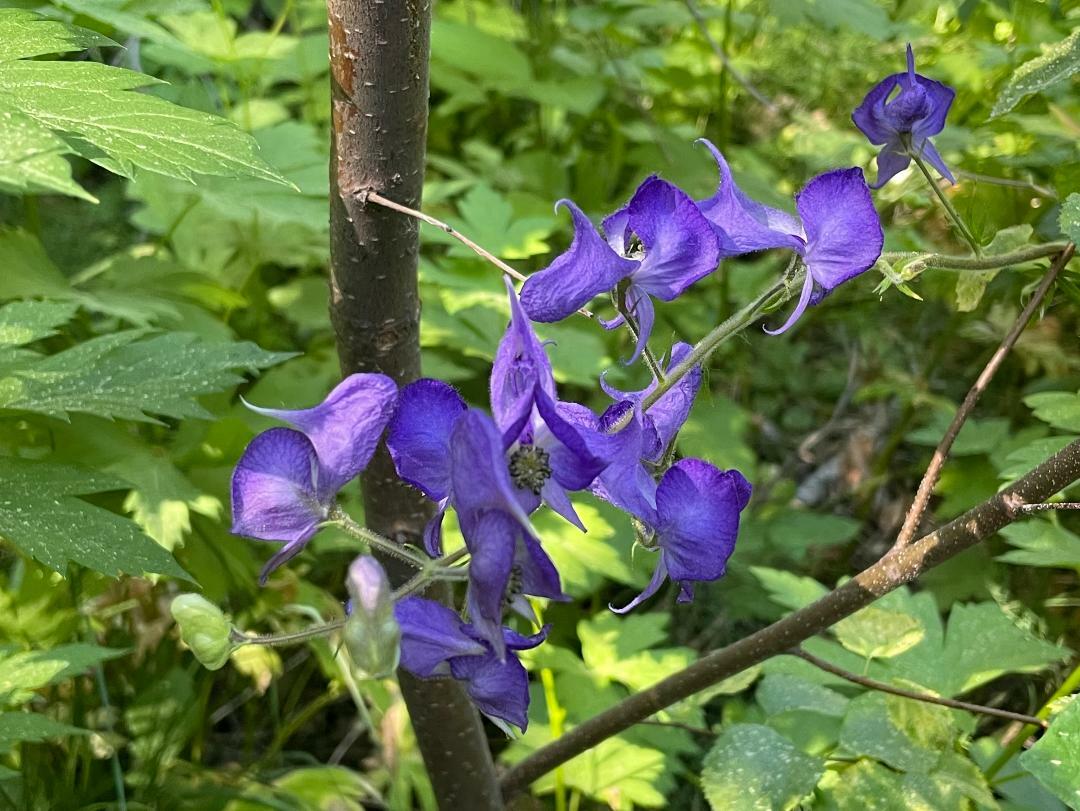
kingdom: Plantae
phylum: Tracheophyta
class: Magnoliopsida
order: Ranunculales
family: Ranunculaceae
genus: Aconitum
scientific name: Aconitum columbianum
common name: Columbia aconite
